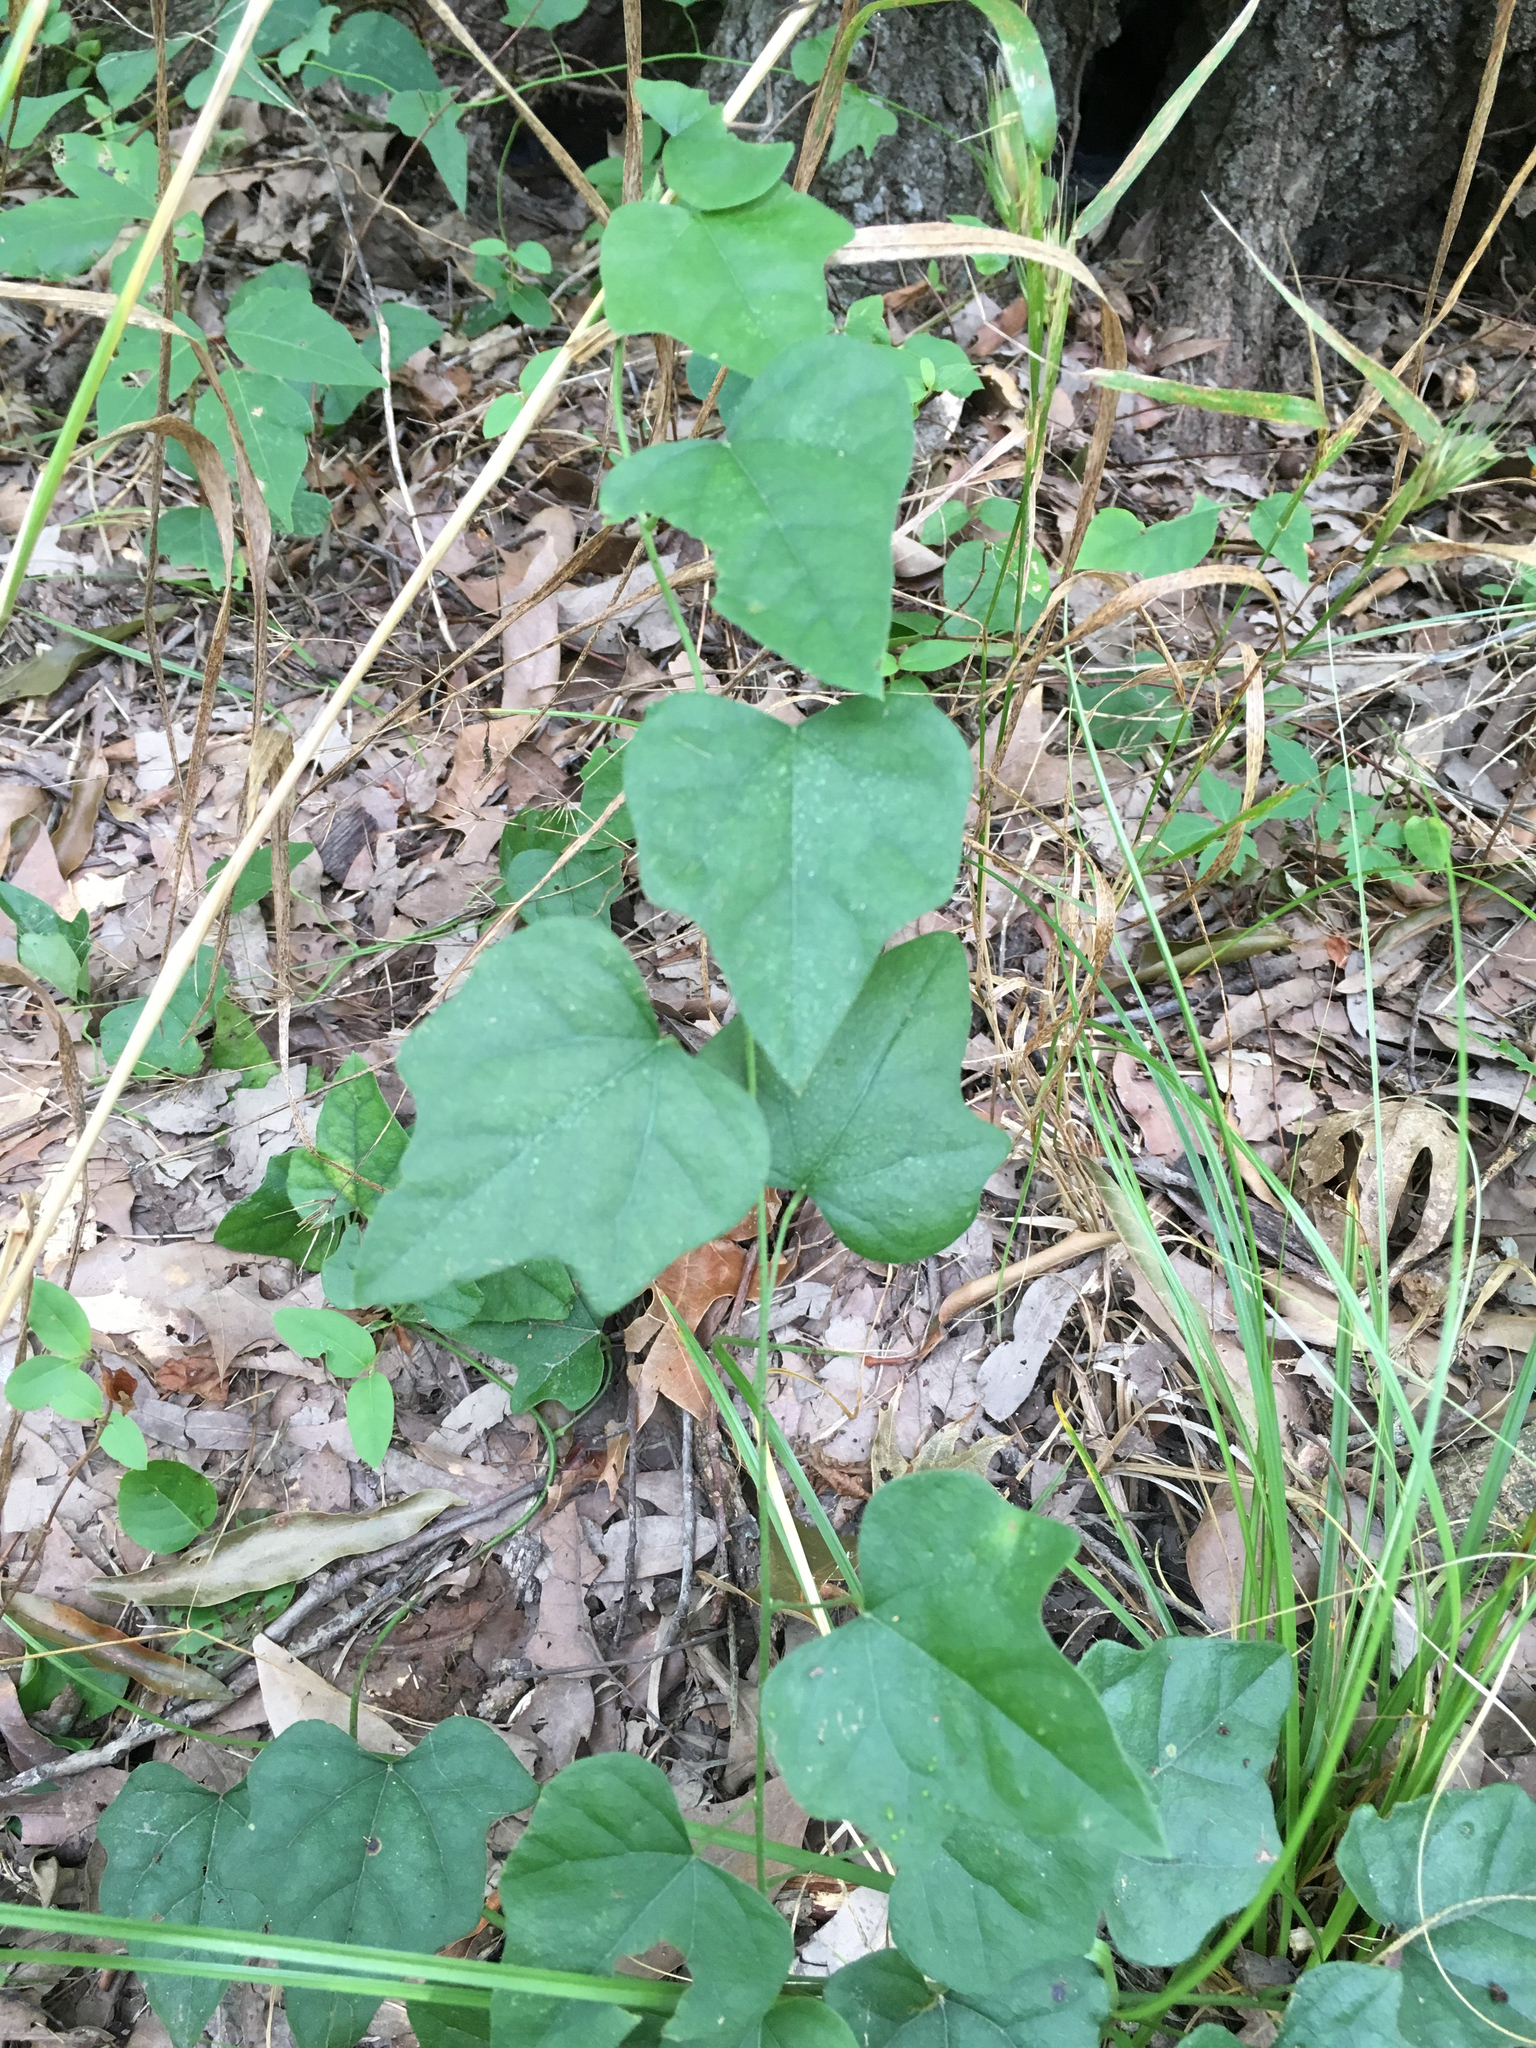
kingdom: Plantae
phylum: Tracheophyta
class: Magnoliopsida
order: Ranunculales
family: Menispermaceae
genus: Cocculus
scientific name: Cocculus carolinus
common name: Carolina moonseed
